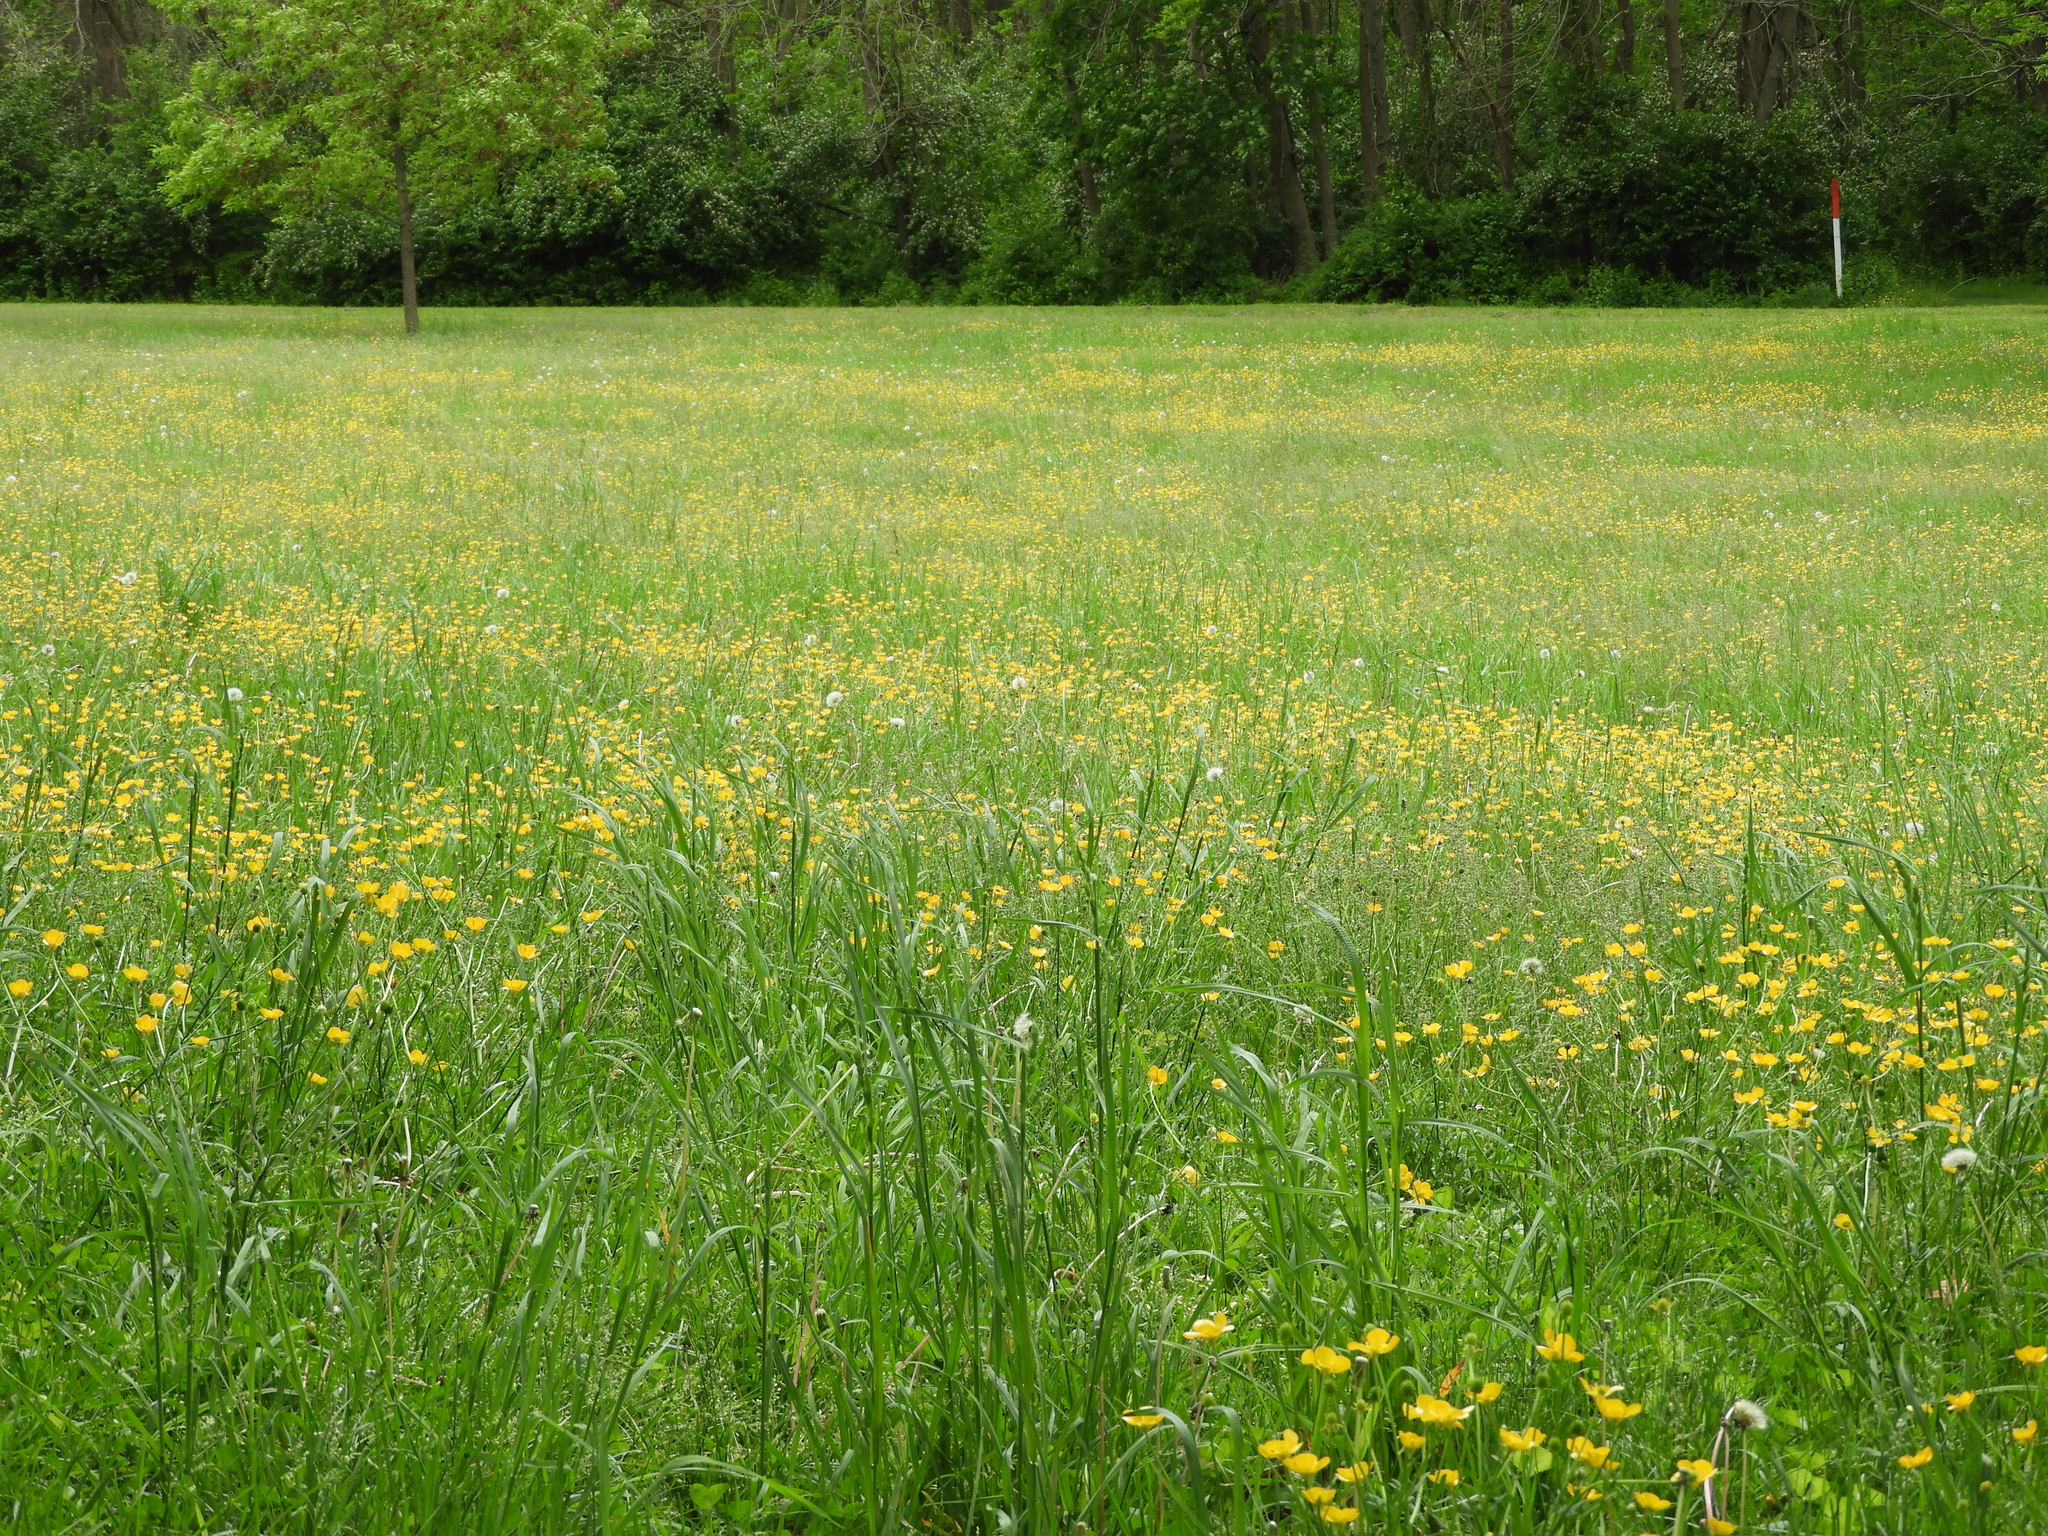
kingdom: Plantae
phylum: Tracheophyta
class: Magnoliopsida
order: Ranunculales
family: Ranunculaceae
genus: Ranunculus
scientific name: Ranunculus
